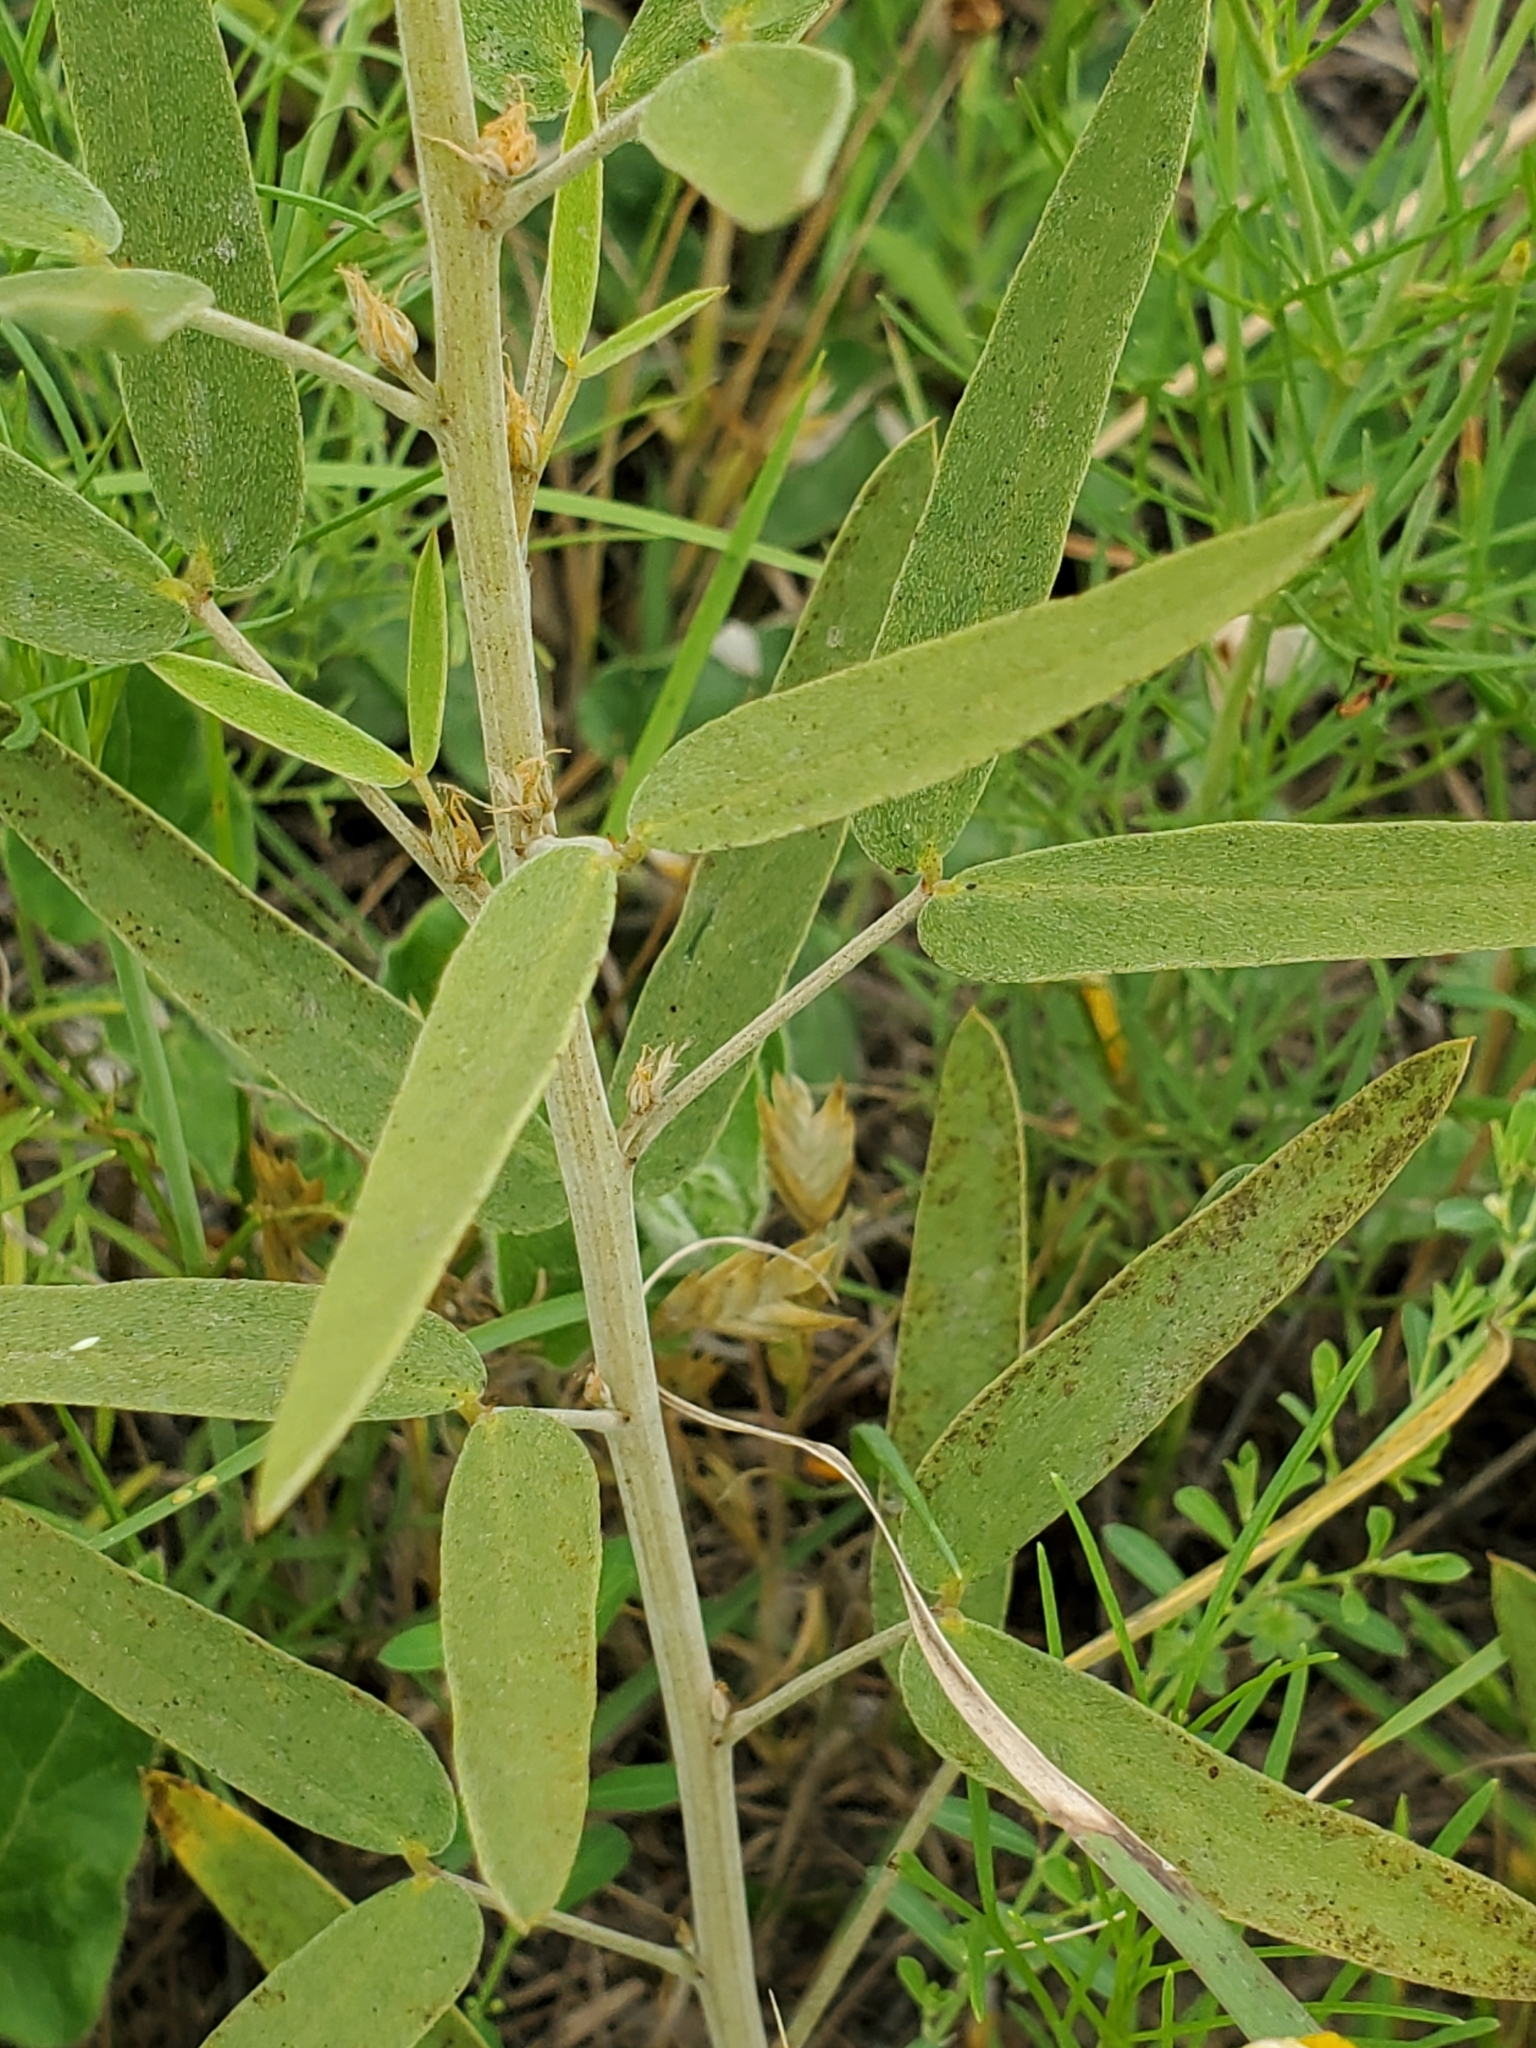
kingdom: Plantae
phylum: Tracheophyta
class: Magnoliopsida
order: Fabales
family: Fabaceae
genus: Senna
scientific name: Senna roemeriana
